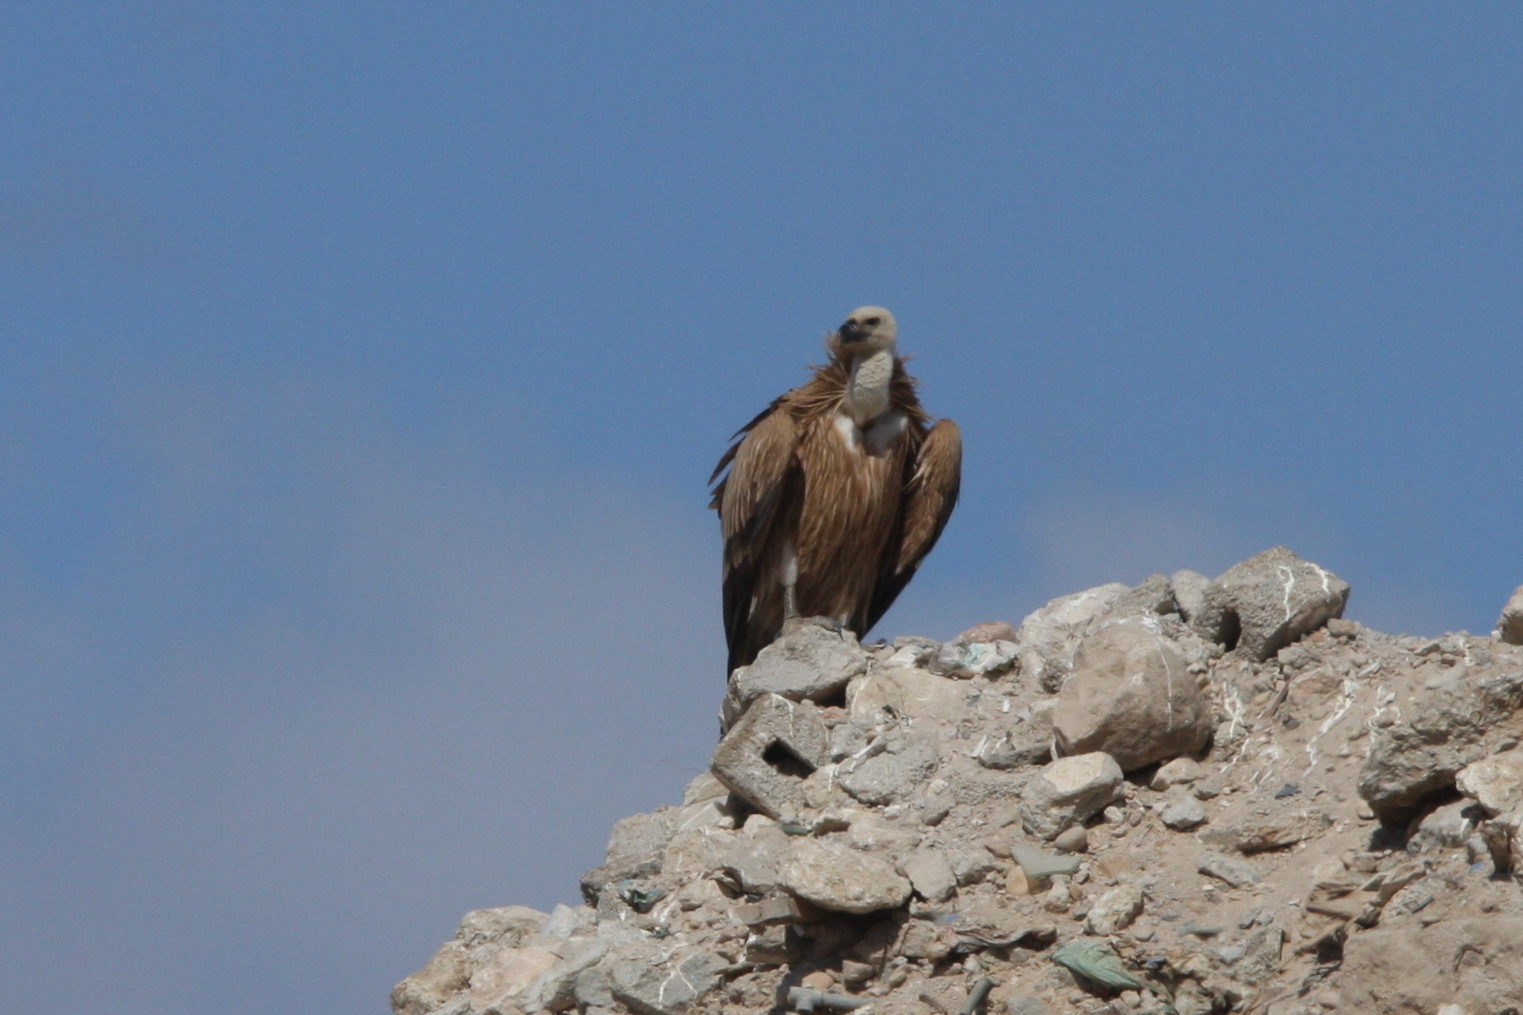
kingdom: Animalia
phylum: Chordata
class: Aves
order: Accipitriformes
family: Accipitridae
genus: Gyps
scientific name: Gyps fulvus
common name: Griffon vulture
